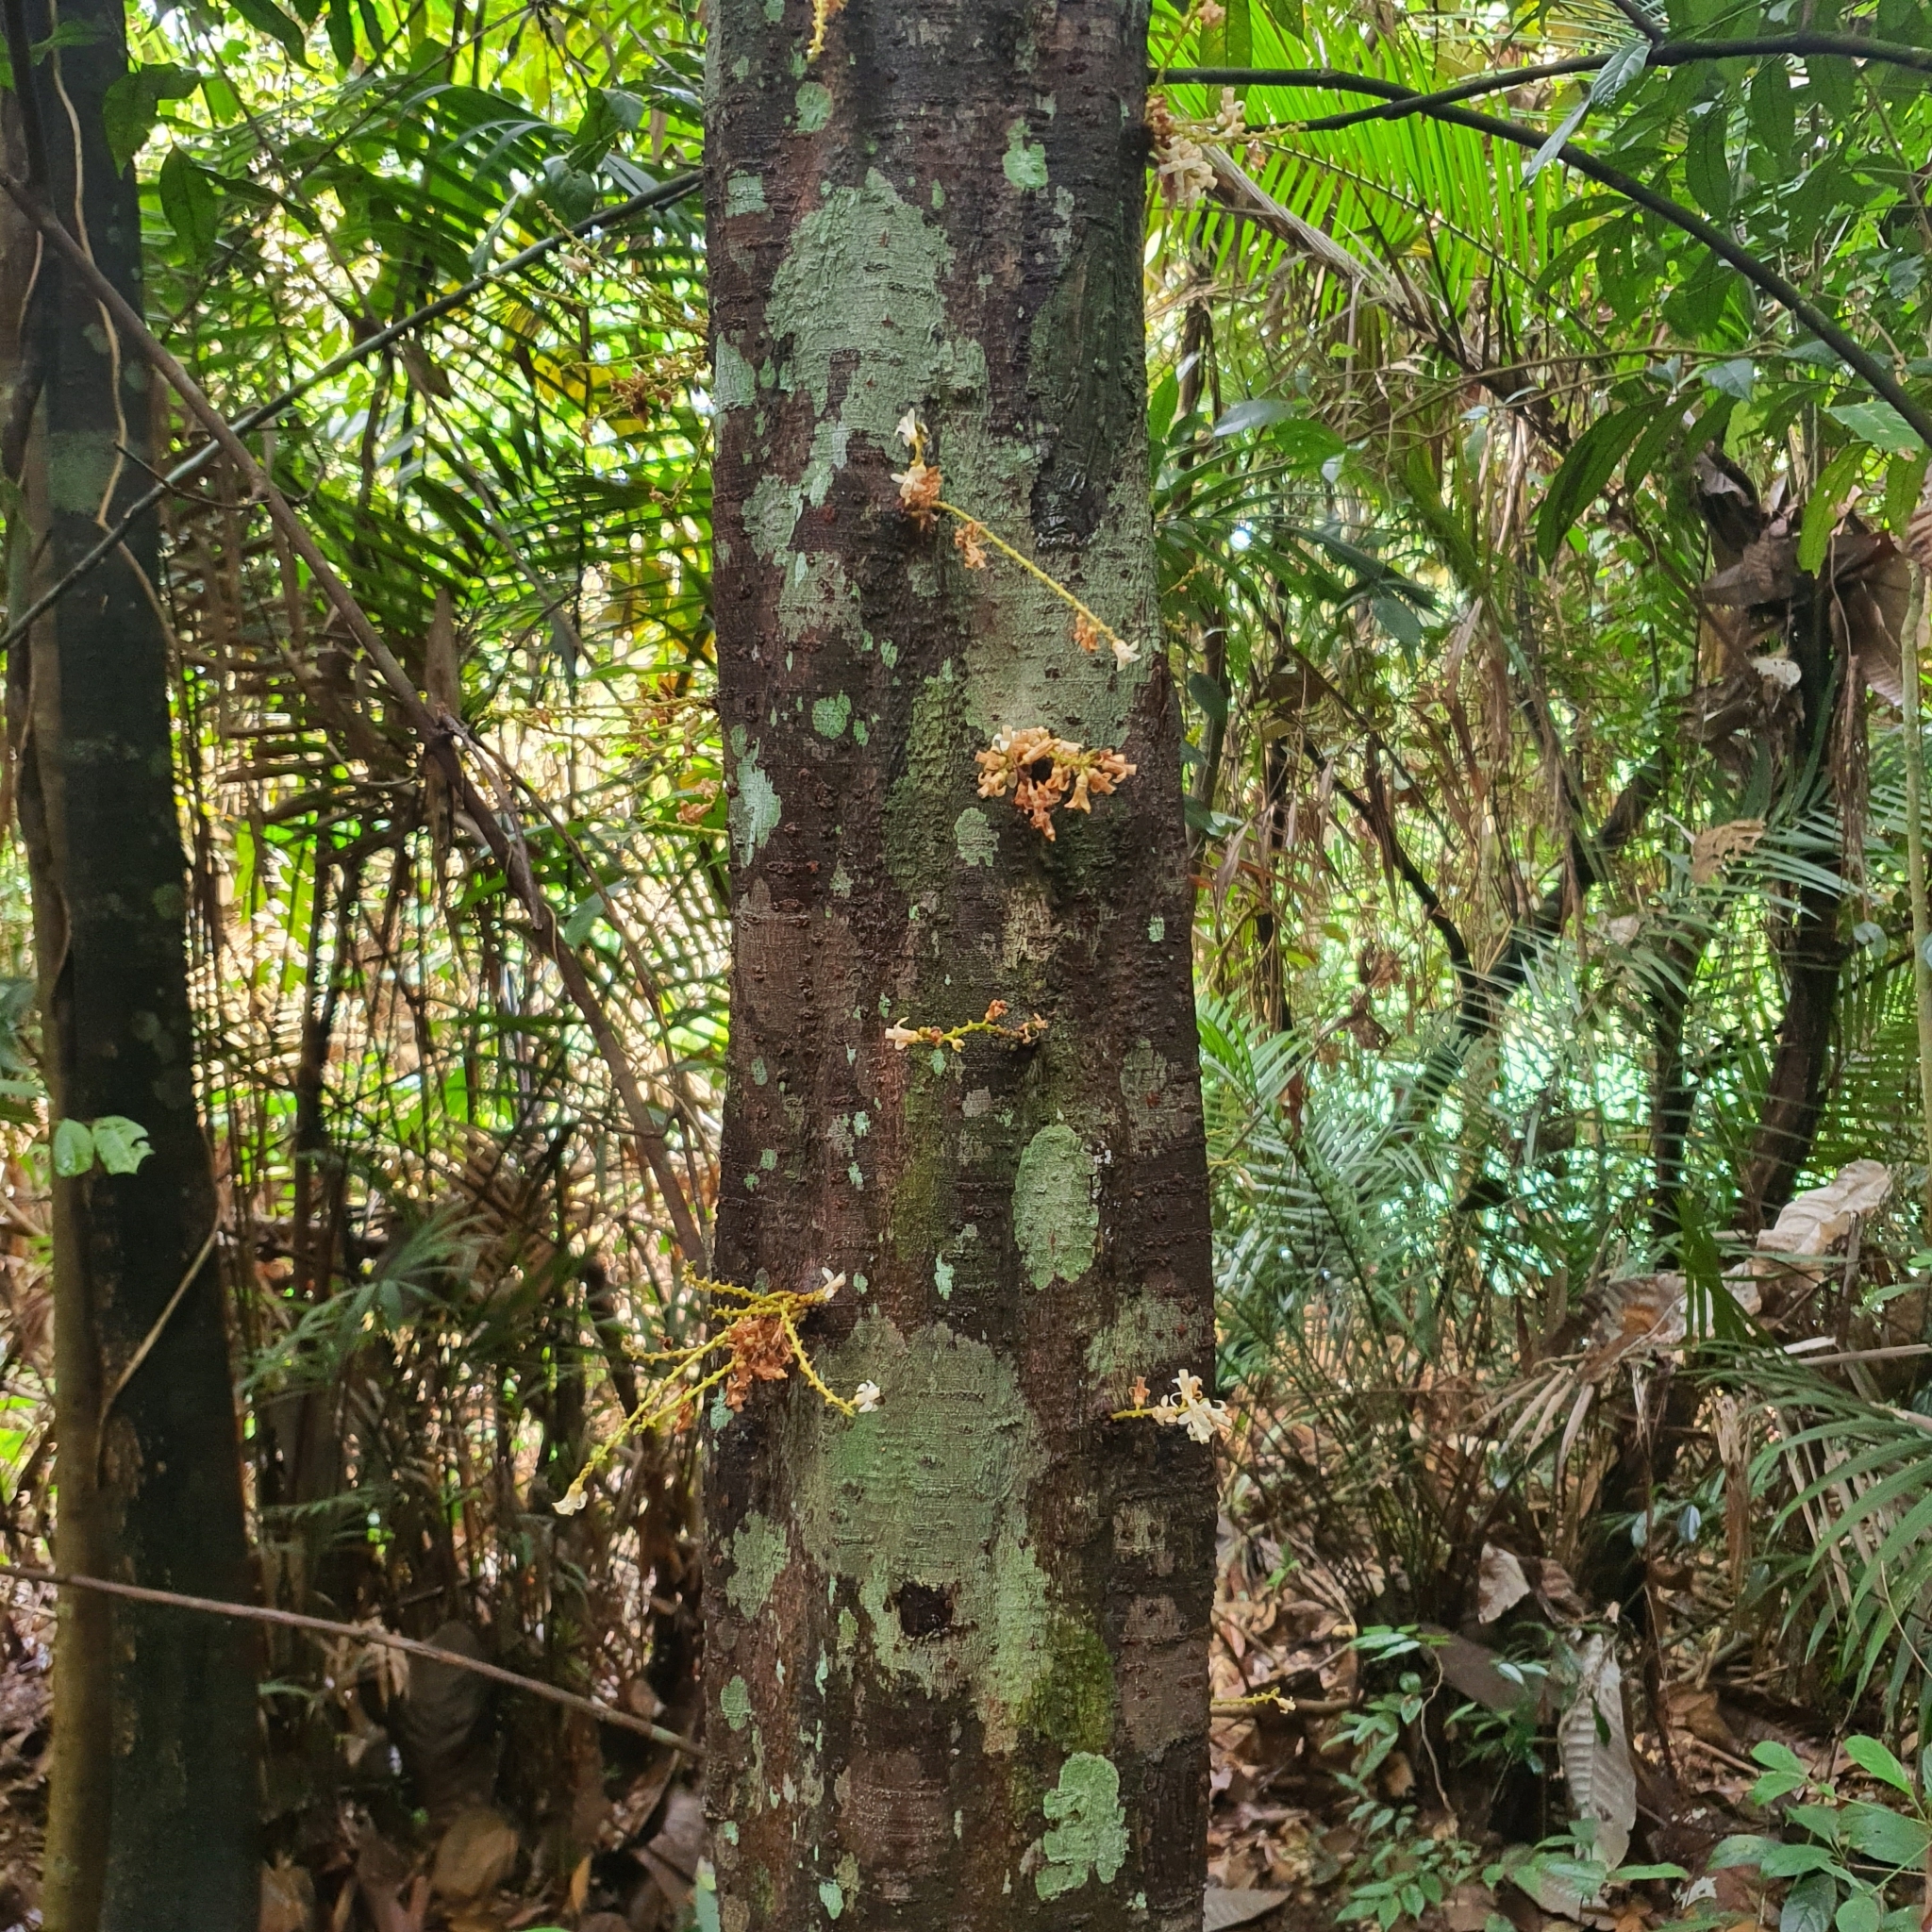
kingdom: Plantae
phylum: Tracheophyta
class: Magnoliopsida
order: Sapindales
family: Meliaceae
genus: Epicharis
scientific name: Epicharis cuneata
